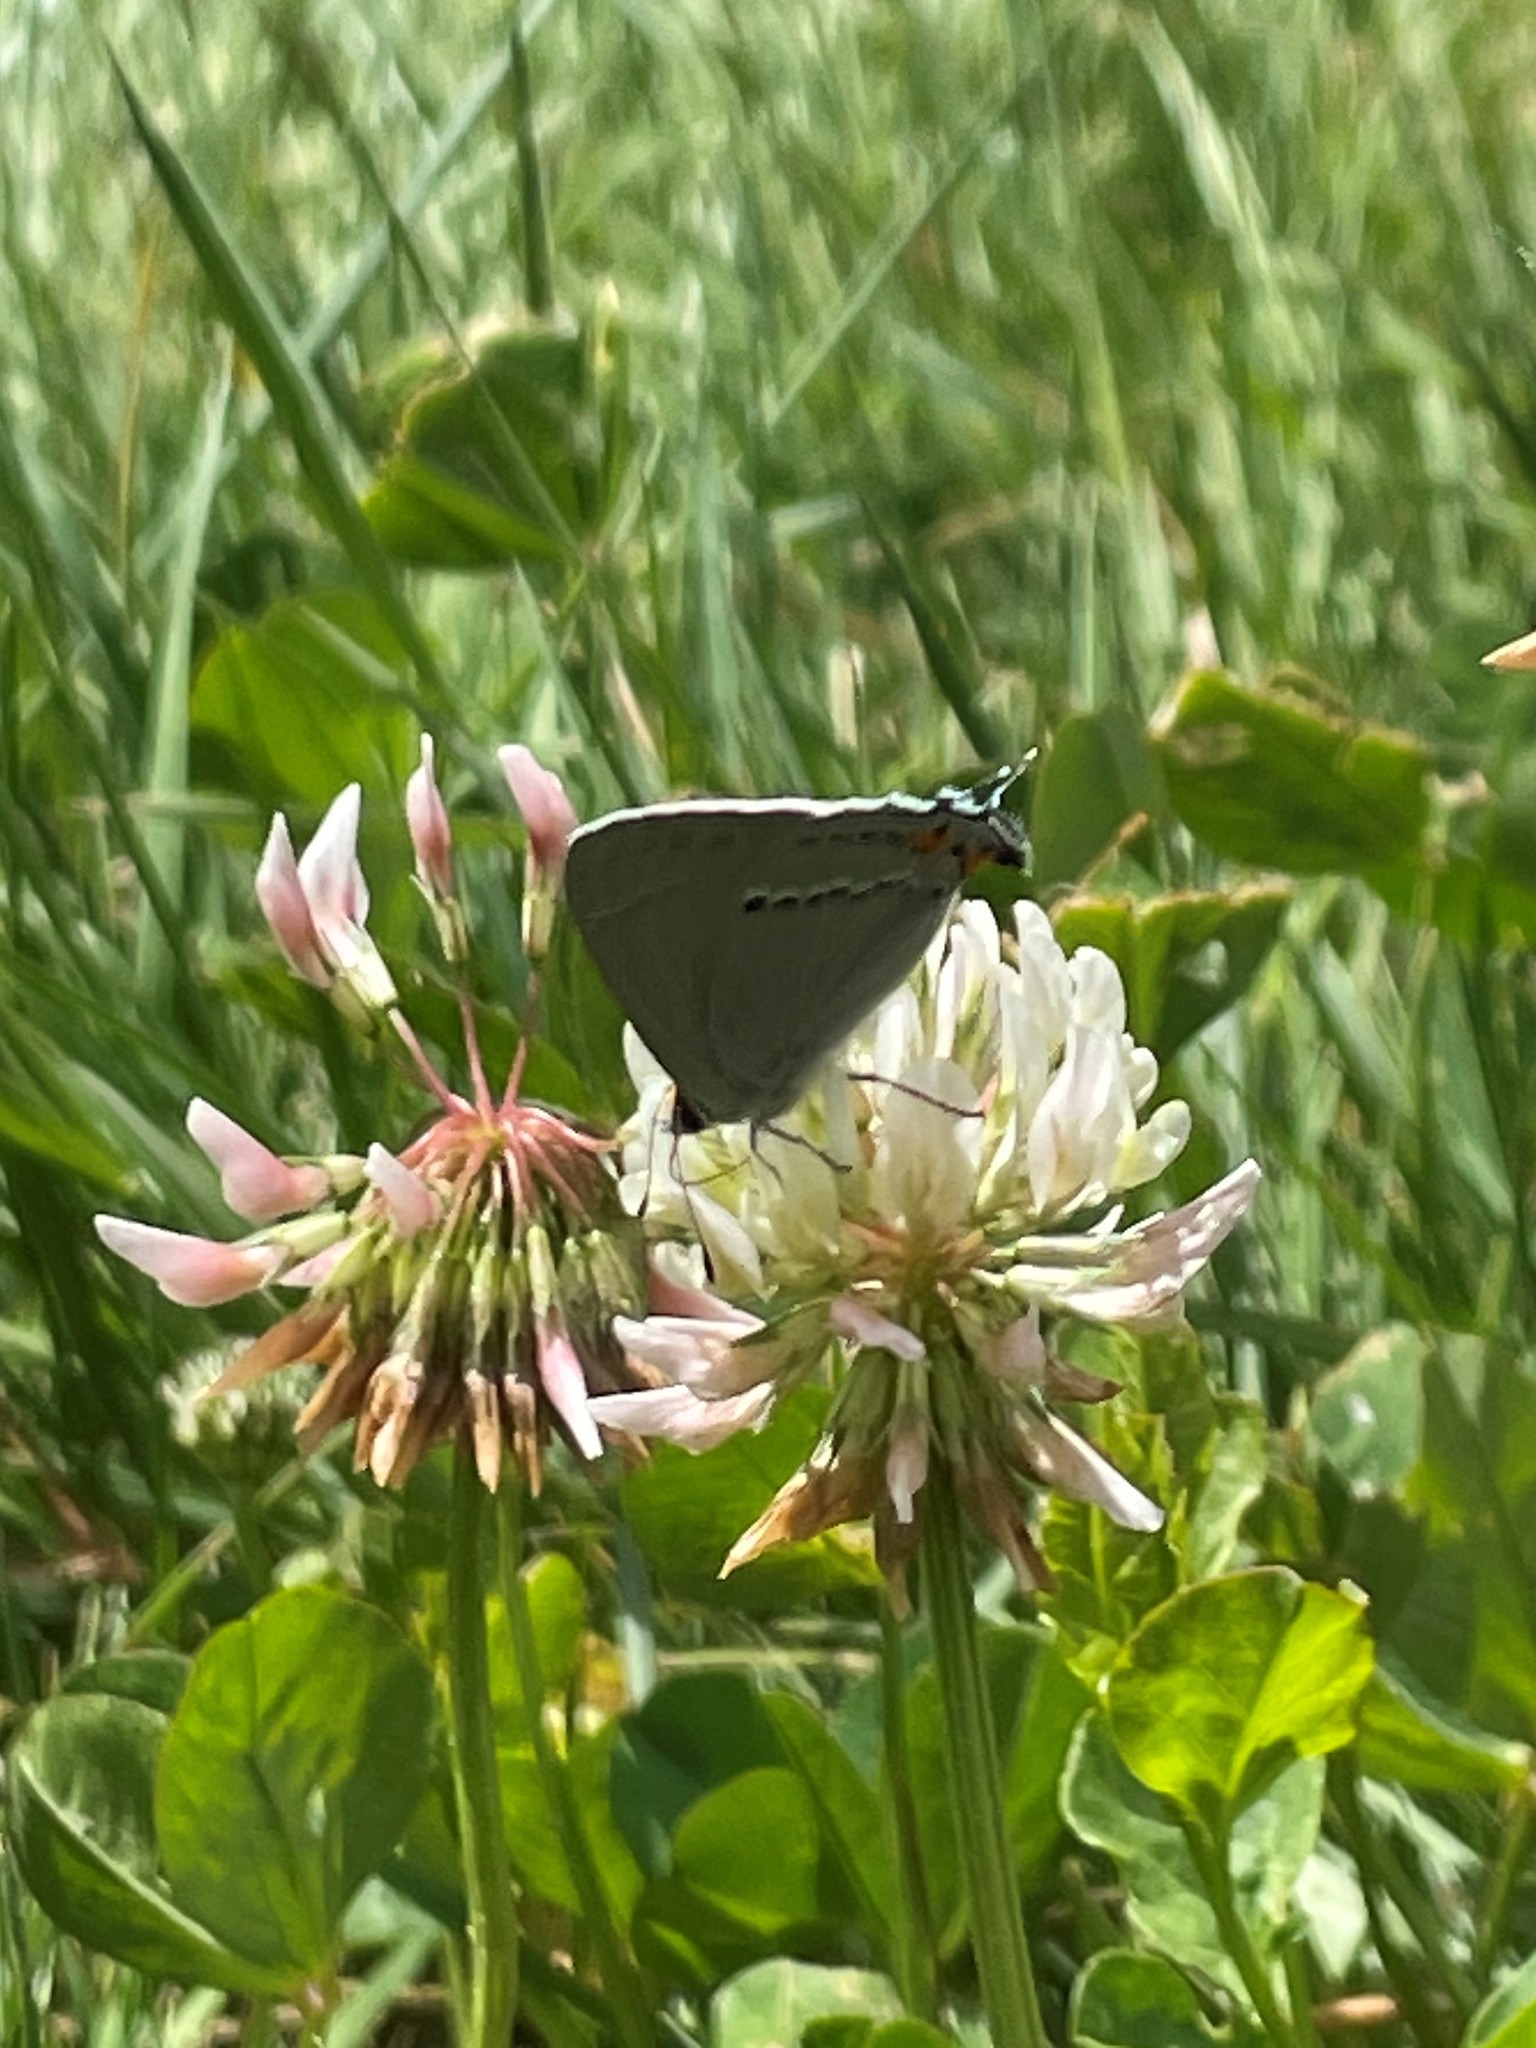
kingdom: Animalia
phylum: Arthropoda
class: Insecta
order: Lepidoptera
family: Lycaenidae
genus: Strymon
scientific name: Strymon melinus
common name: Gray hairstreak
